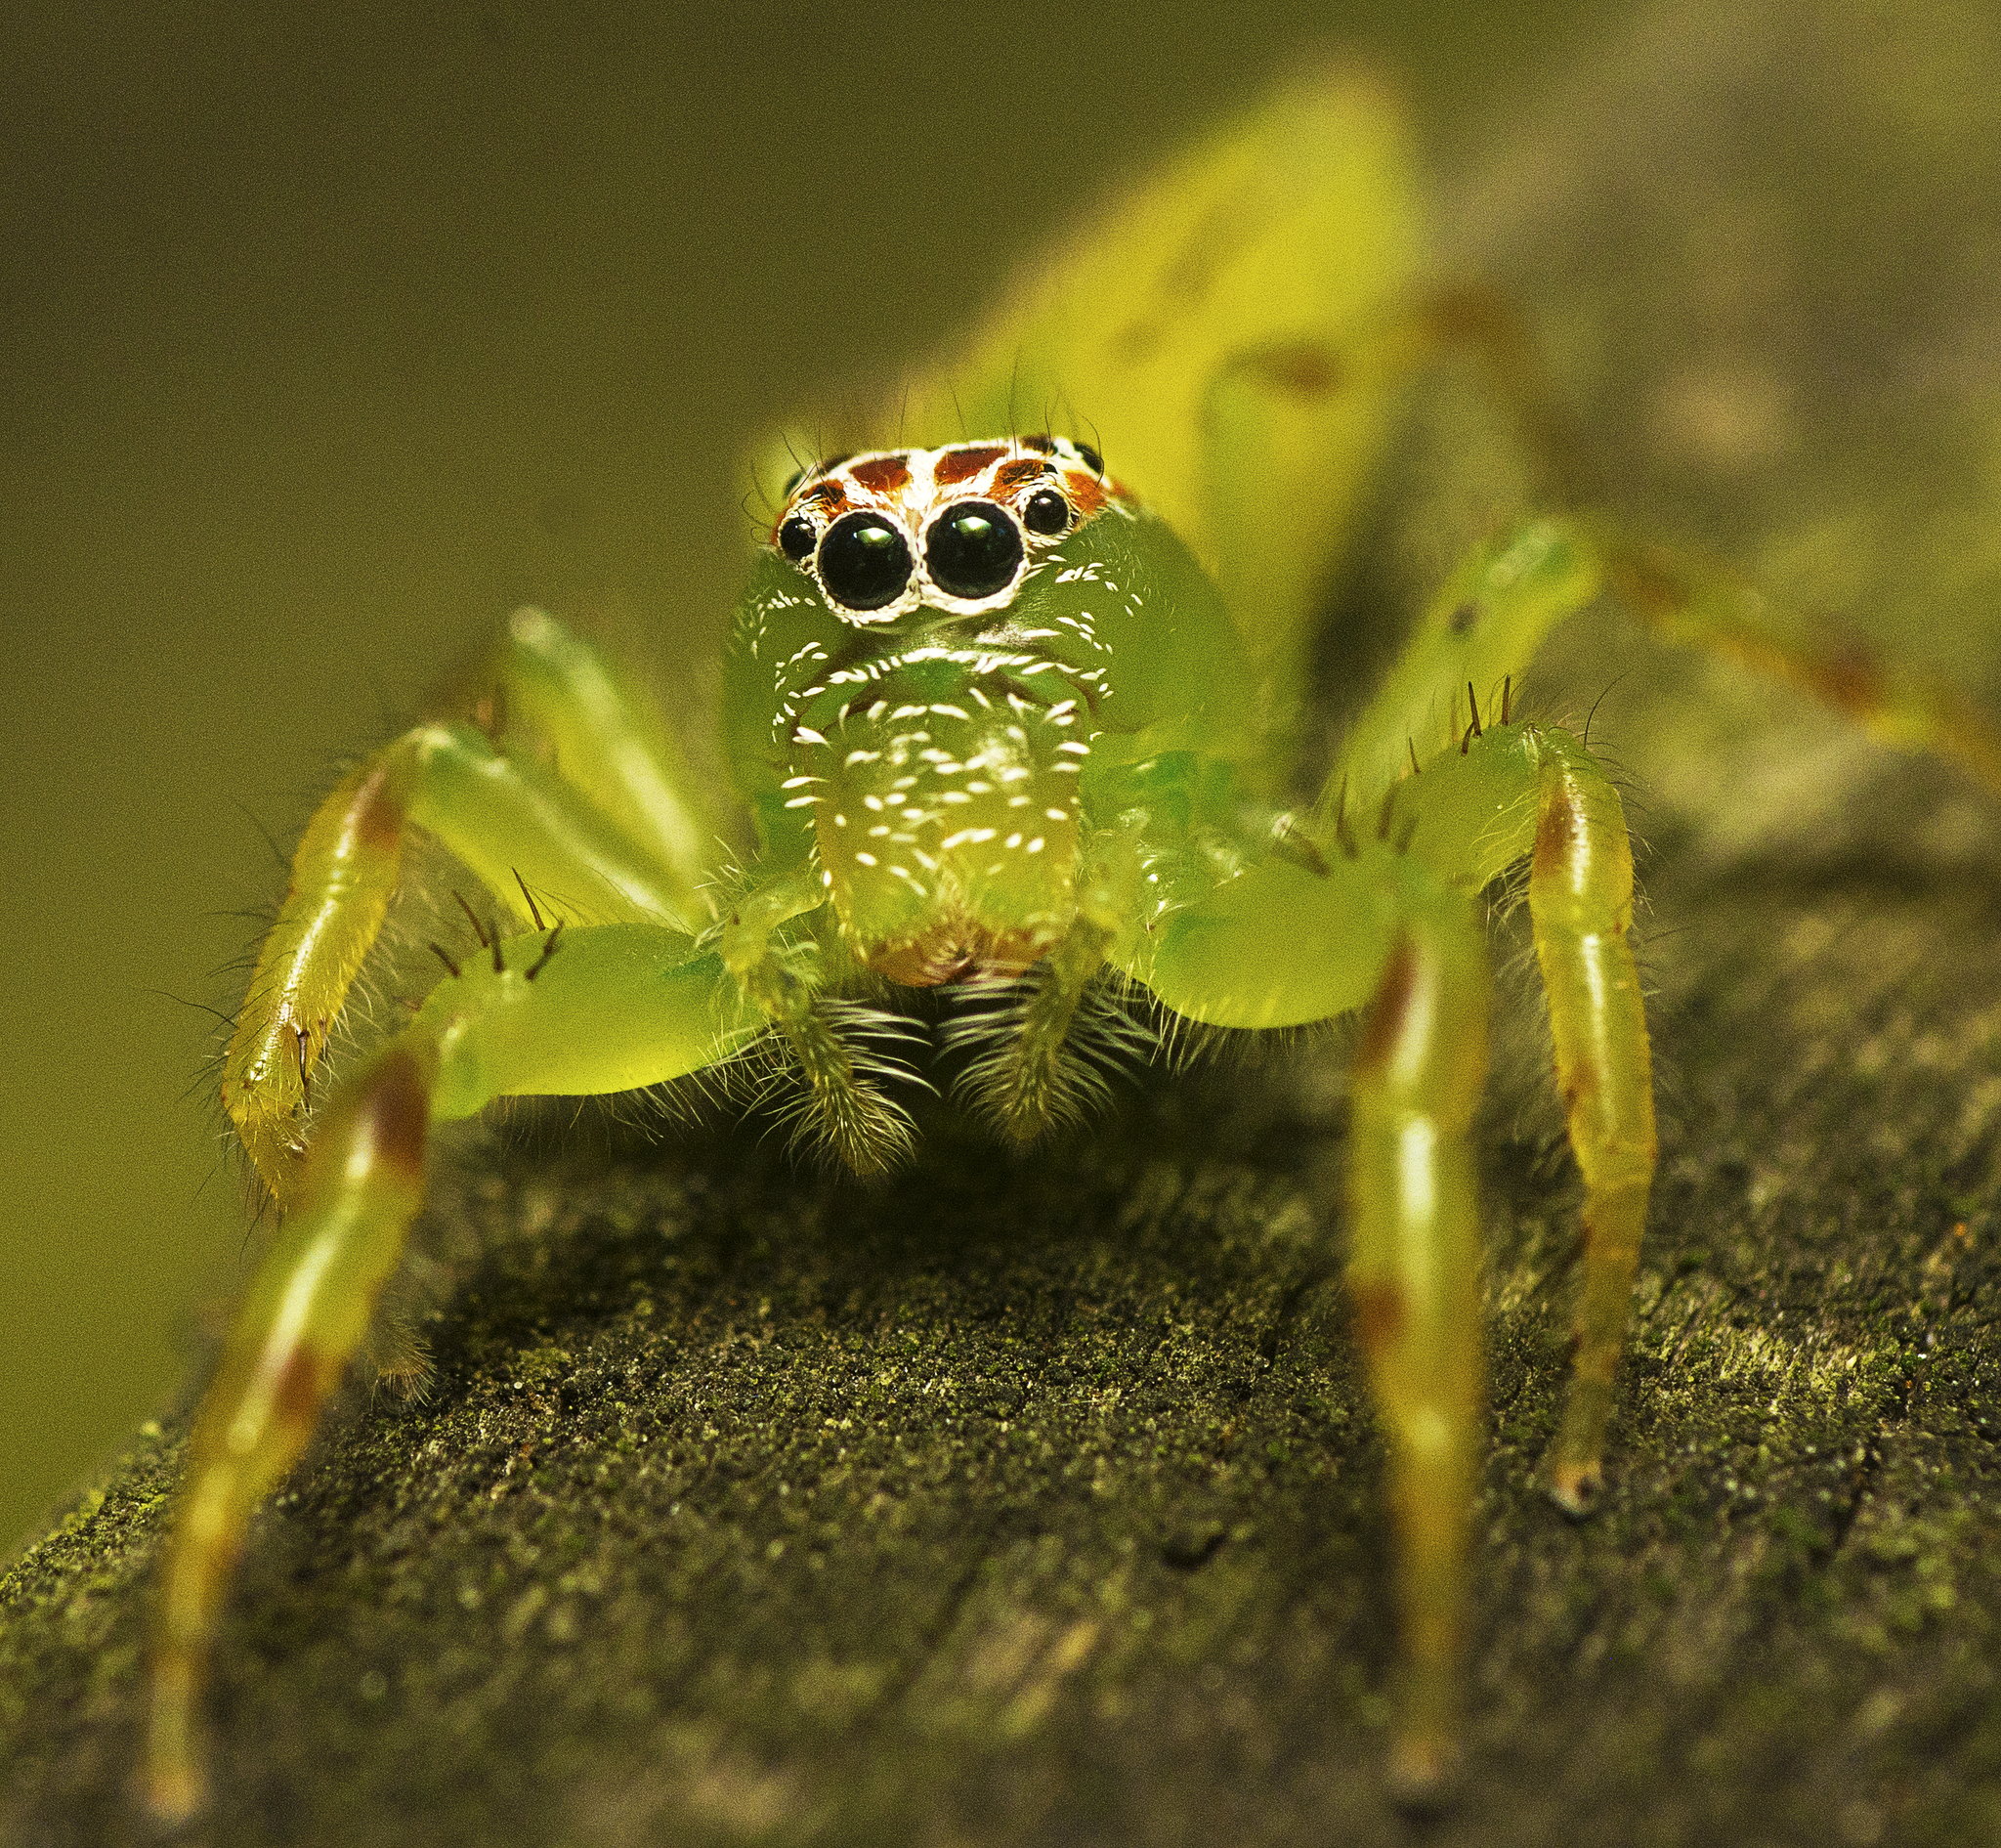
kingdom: Animalia
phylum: Arthropoda
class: Arachnida
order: Araneae
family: Salticidae
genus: Mopsus
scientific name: Mopsus mormon
